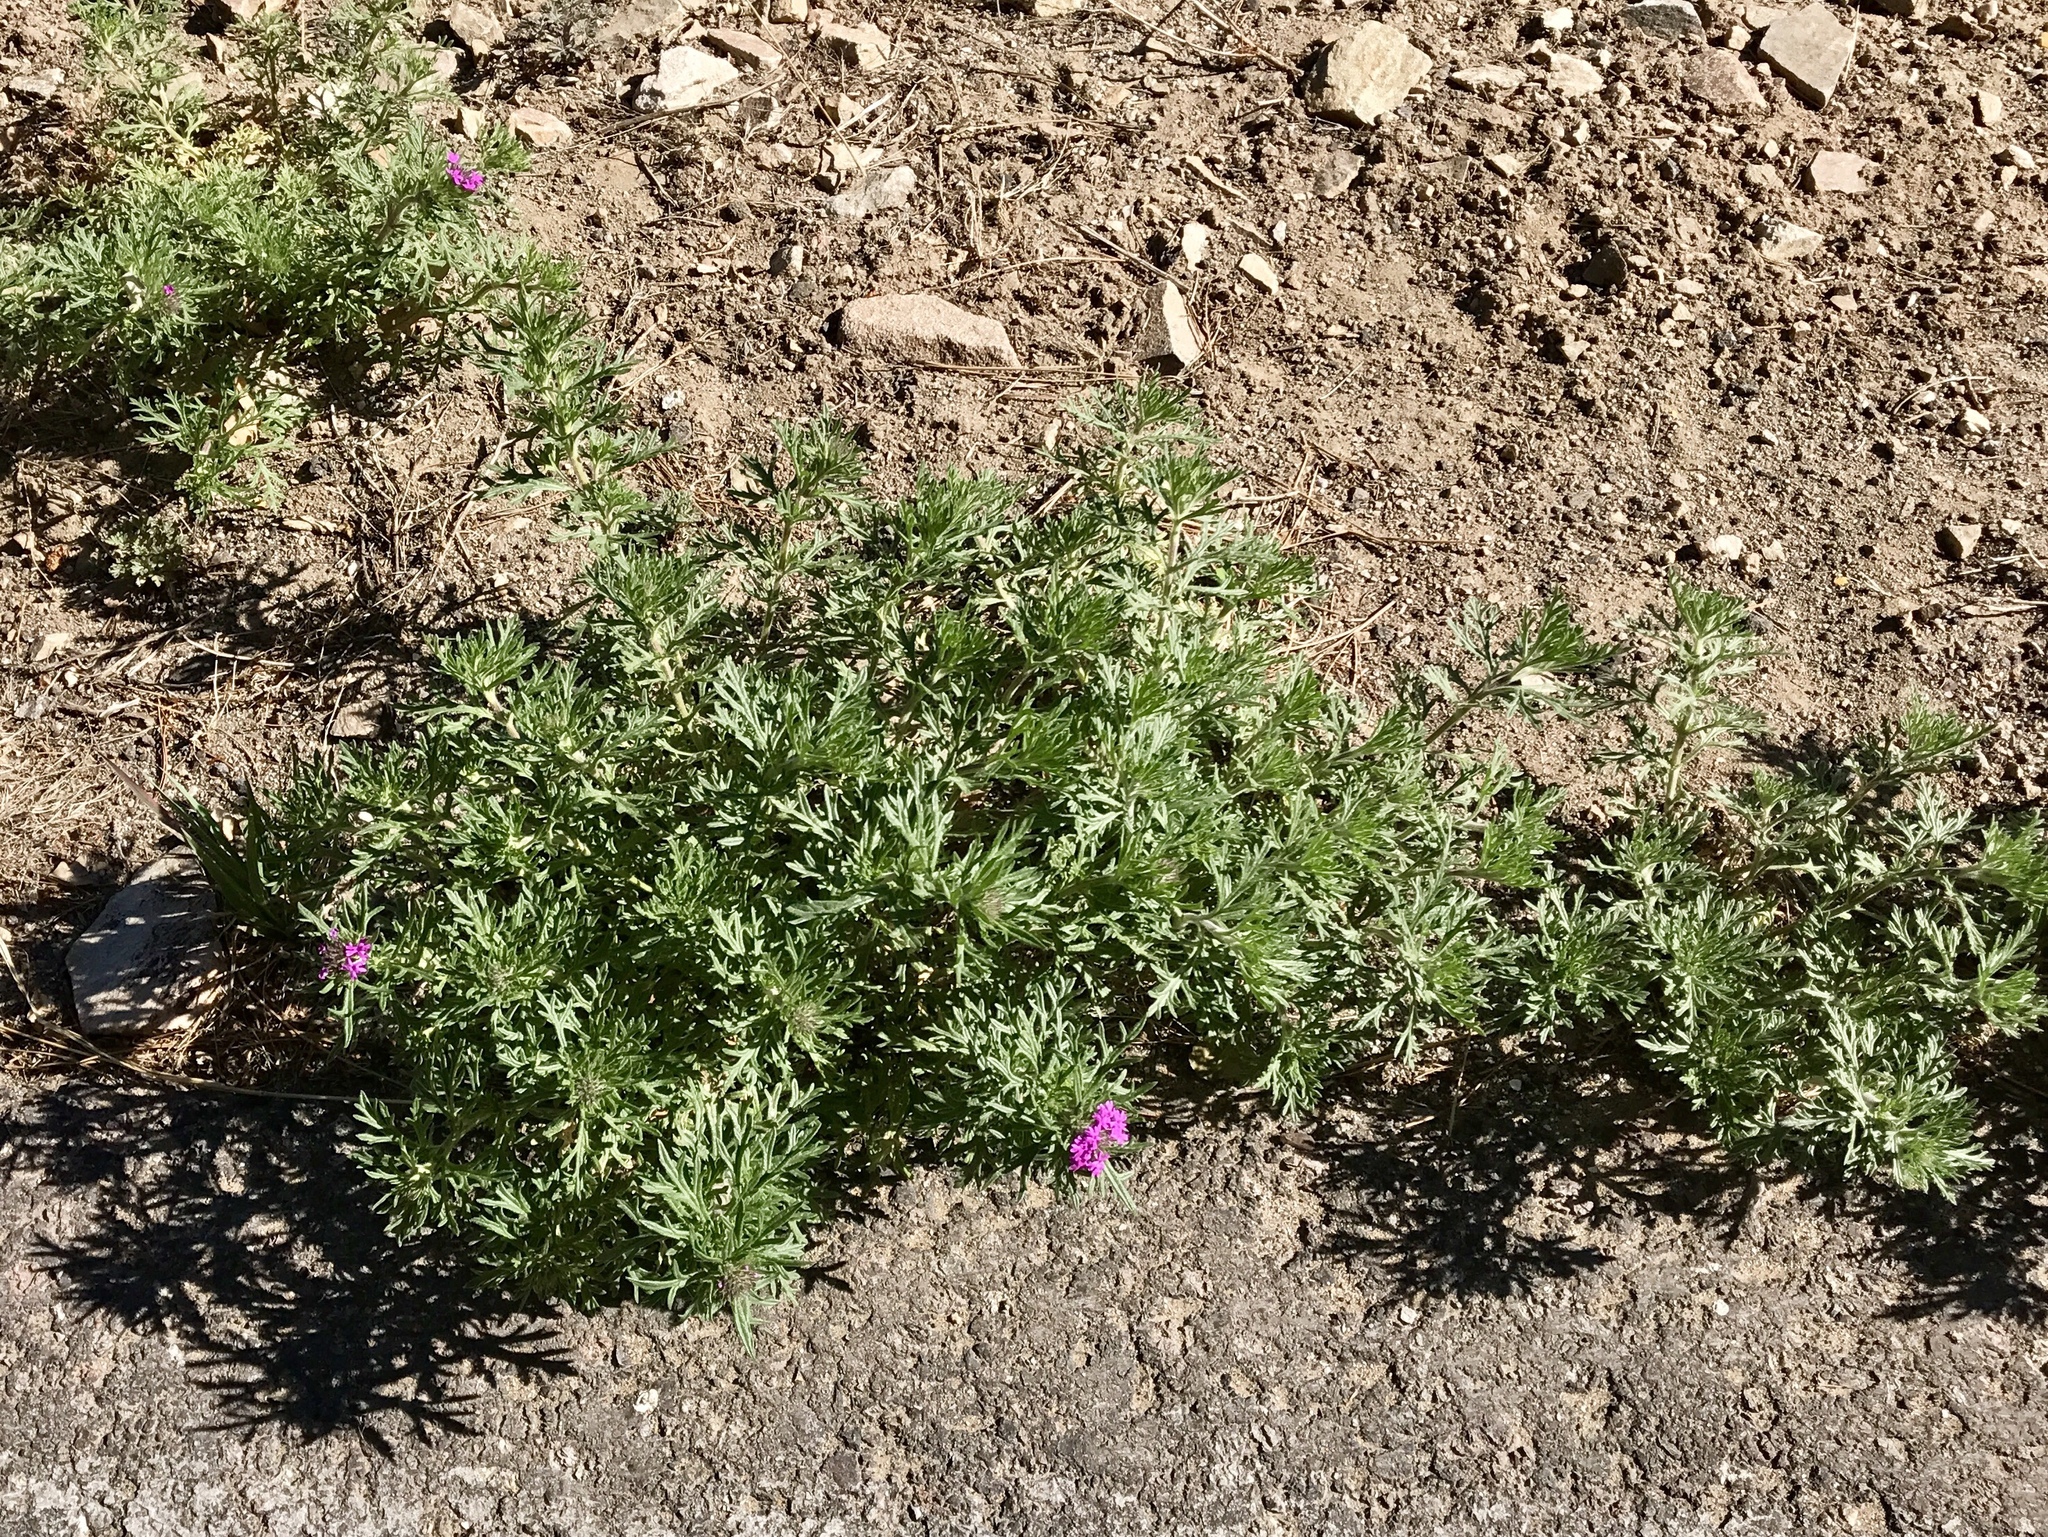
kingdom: Plantae
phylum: Tracheophyta
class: Magnoliopsida
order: Lamiales
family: Verbenaceae
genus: Verbena
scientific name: Verbena chiricahensis
